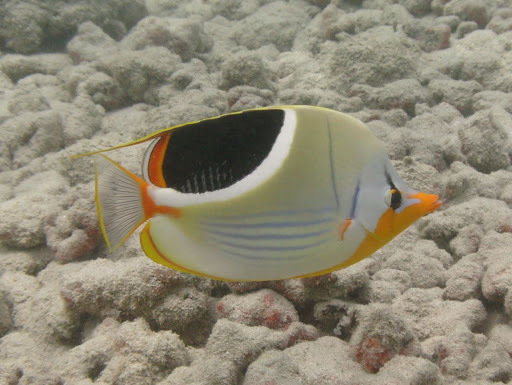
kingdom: Animalia
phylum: Chordata
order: Perciformes
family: Chaetodontidae
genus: Chaetodon
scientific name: Chaetodon ephippium
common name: Saddled butterflyfish
